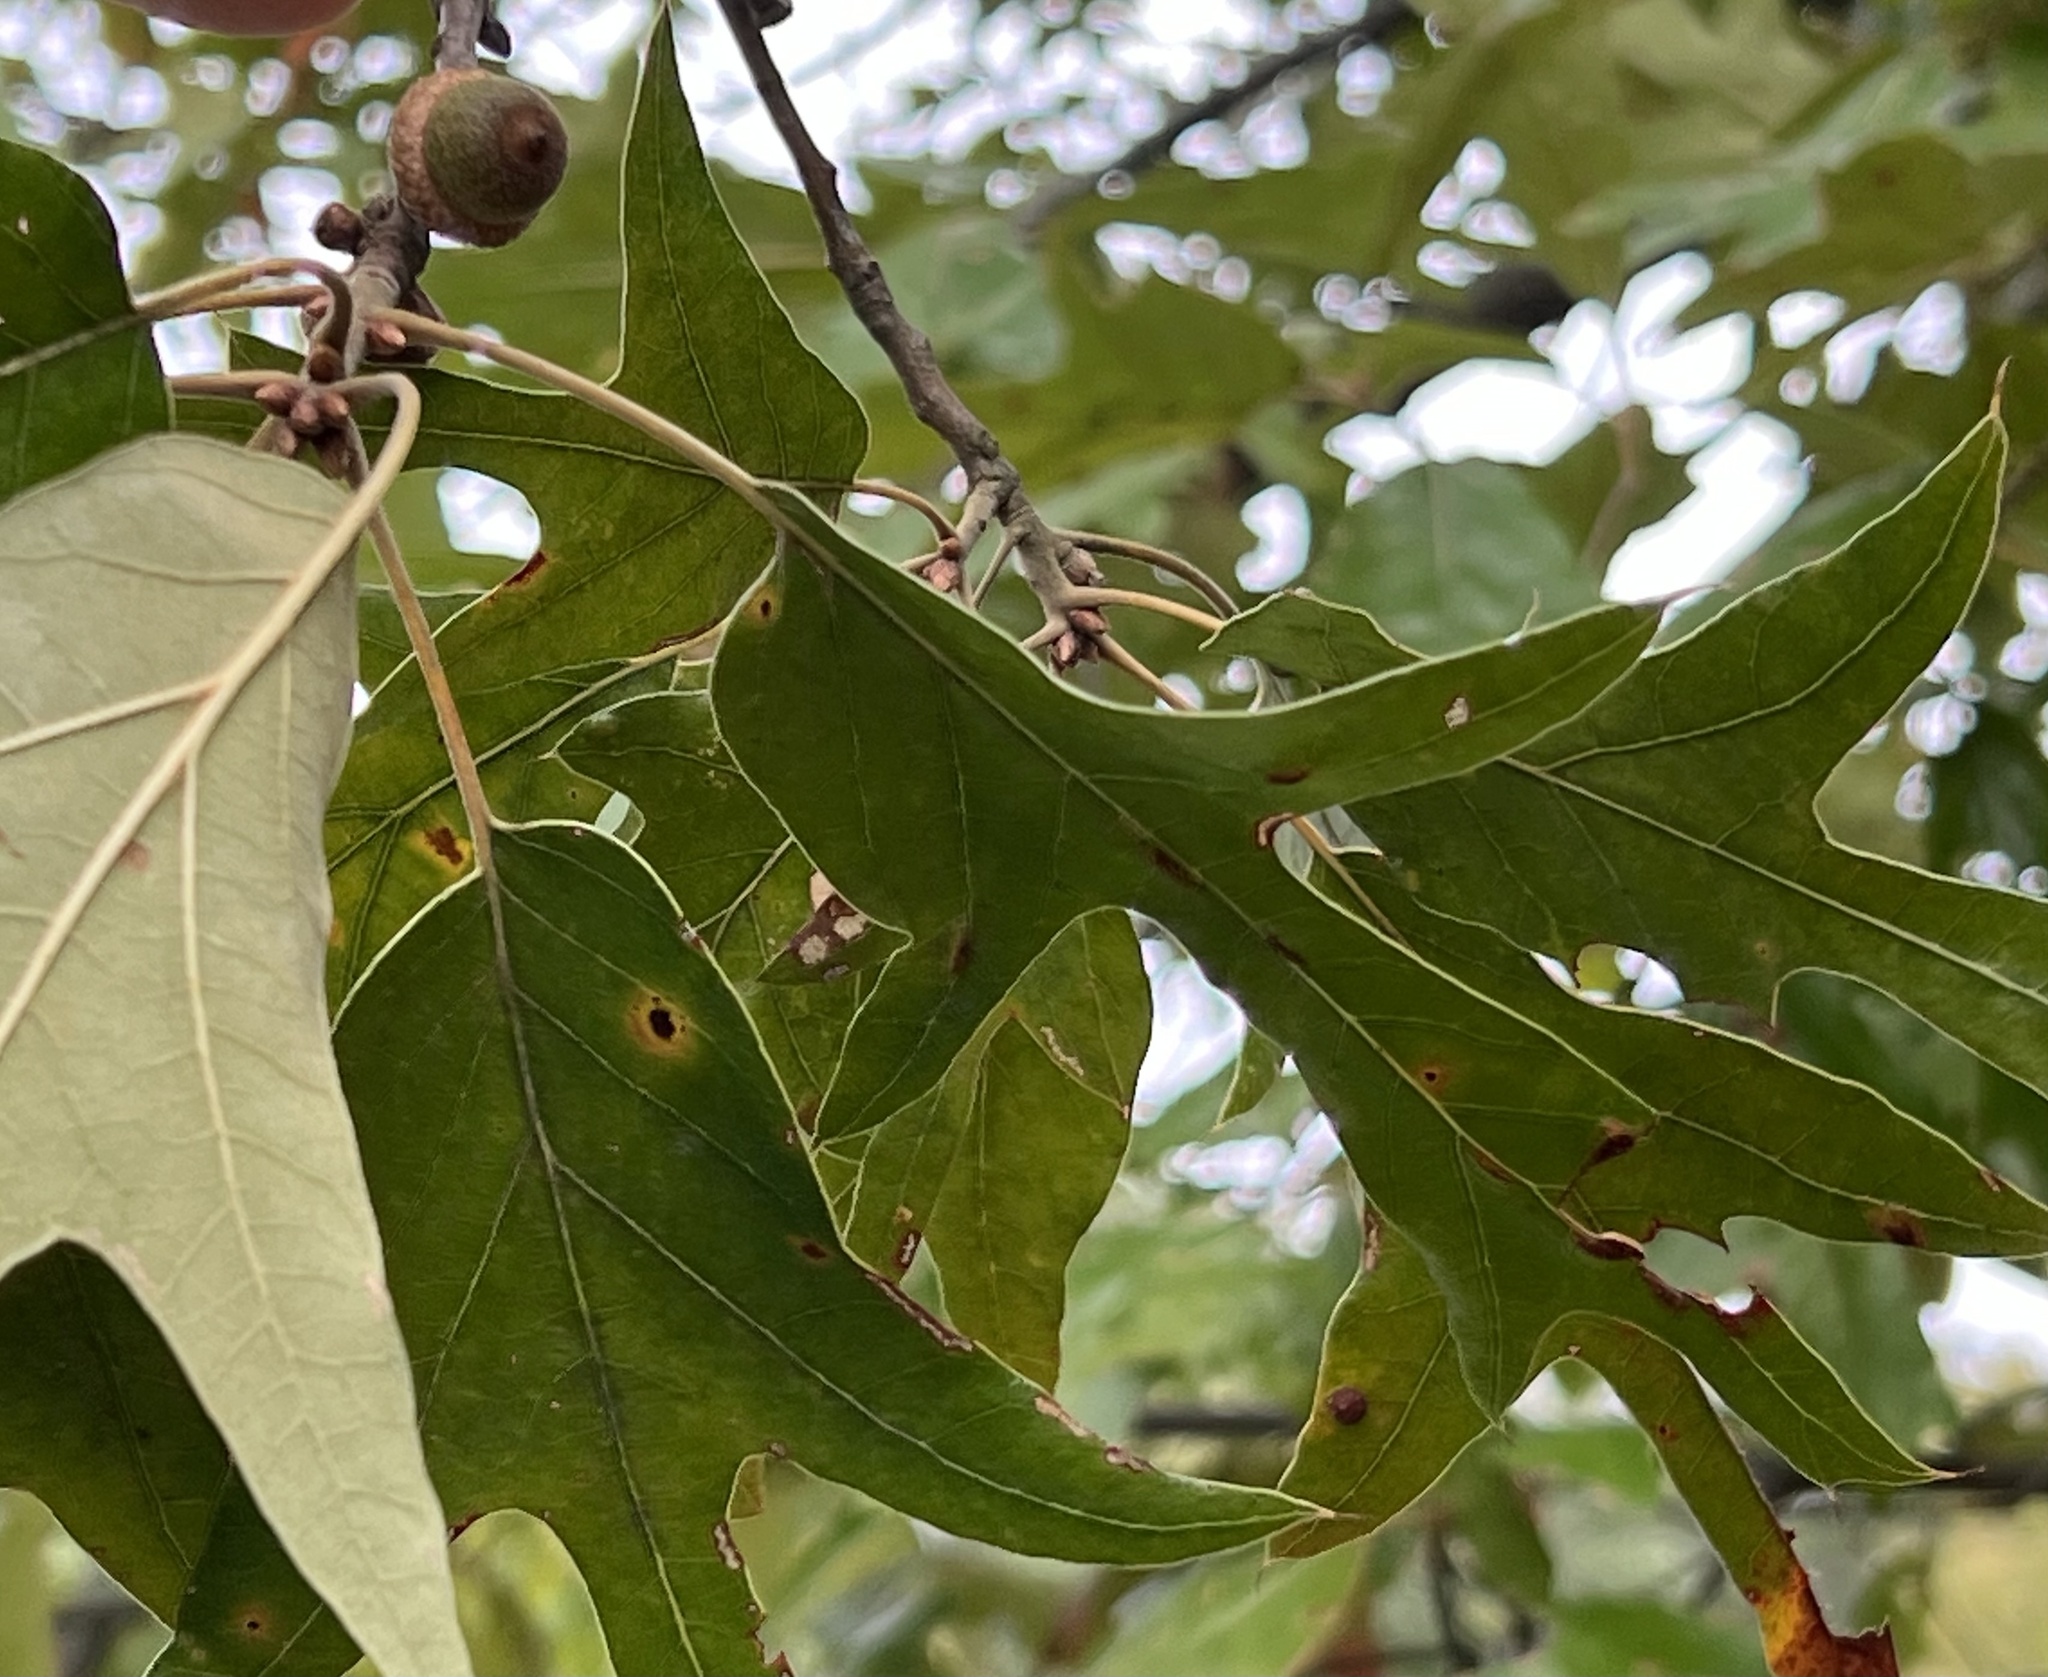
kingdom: Plantae
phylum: Tracheophyta
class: Magnoliopsida
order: Fagales
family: Fagaceae
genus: Quercus
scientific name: Quercus falcata
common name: Southern red oak
